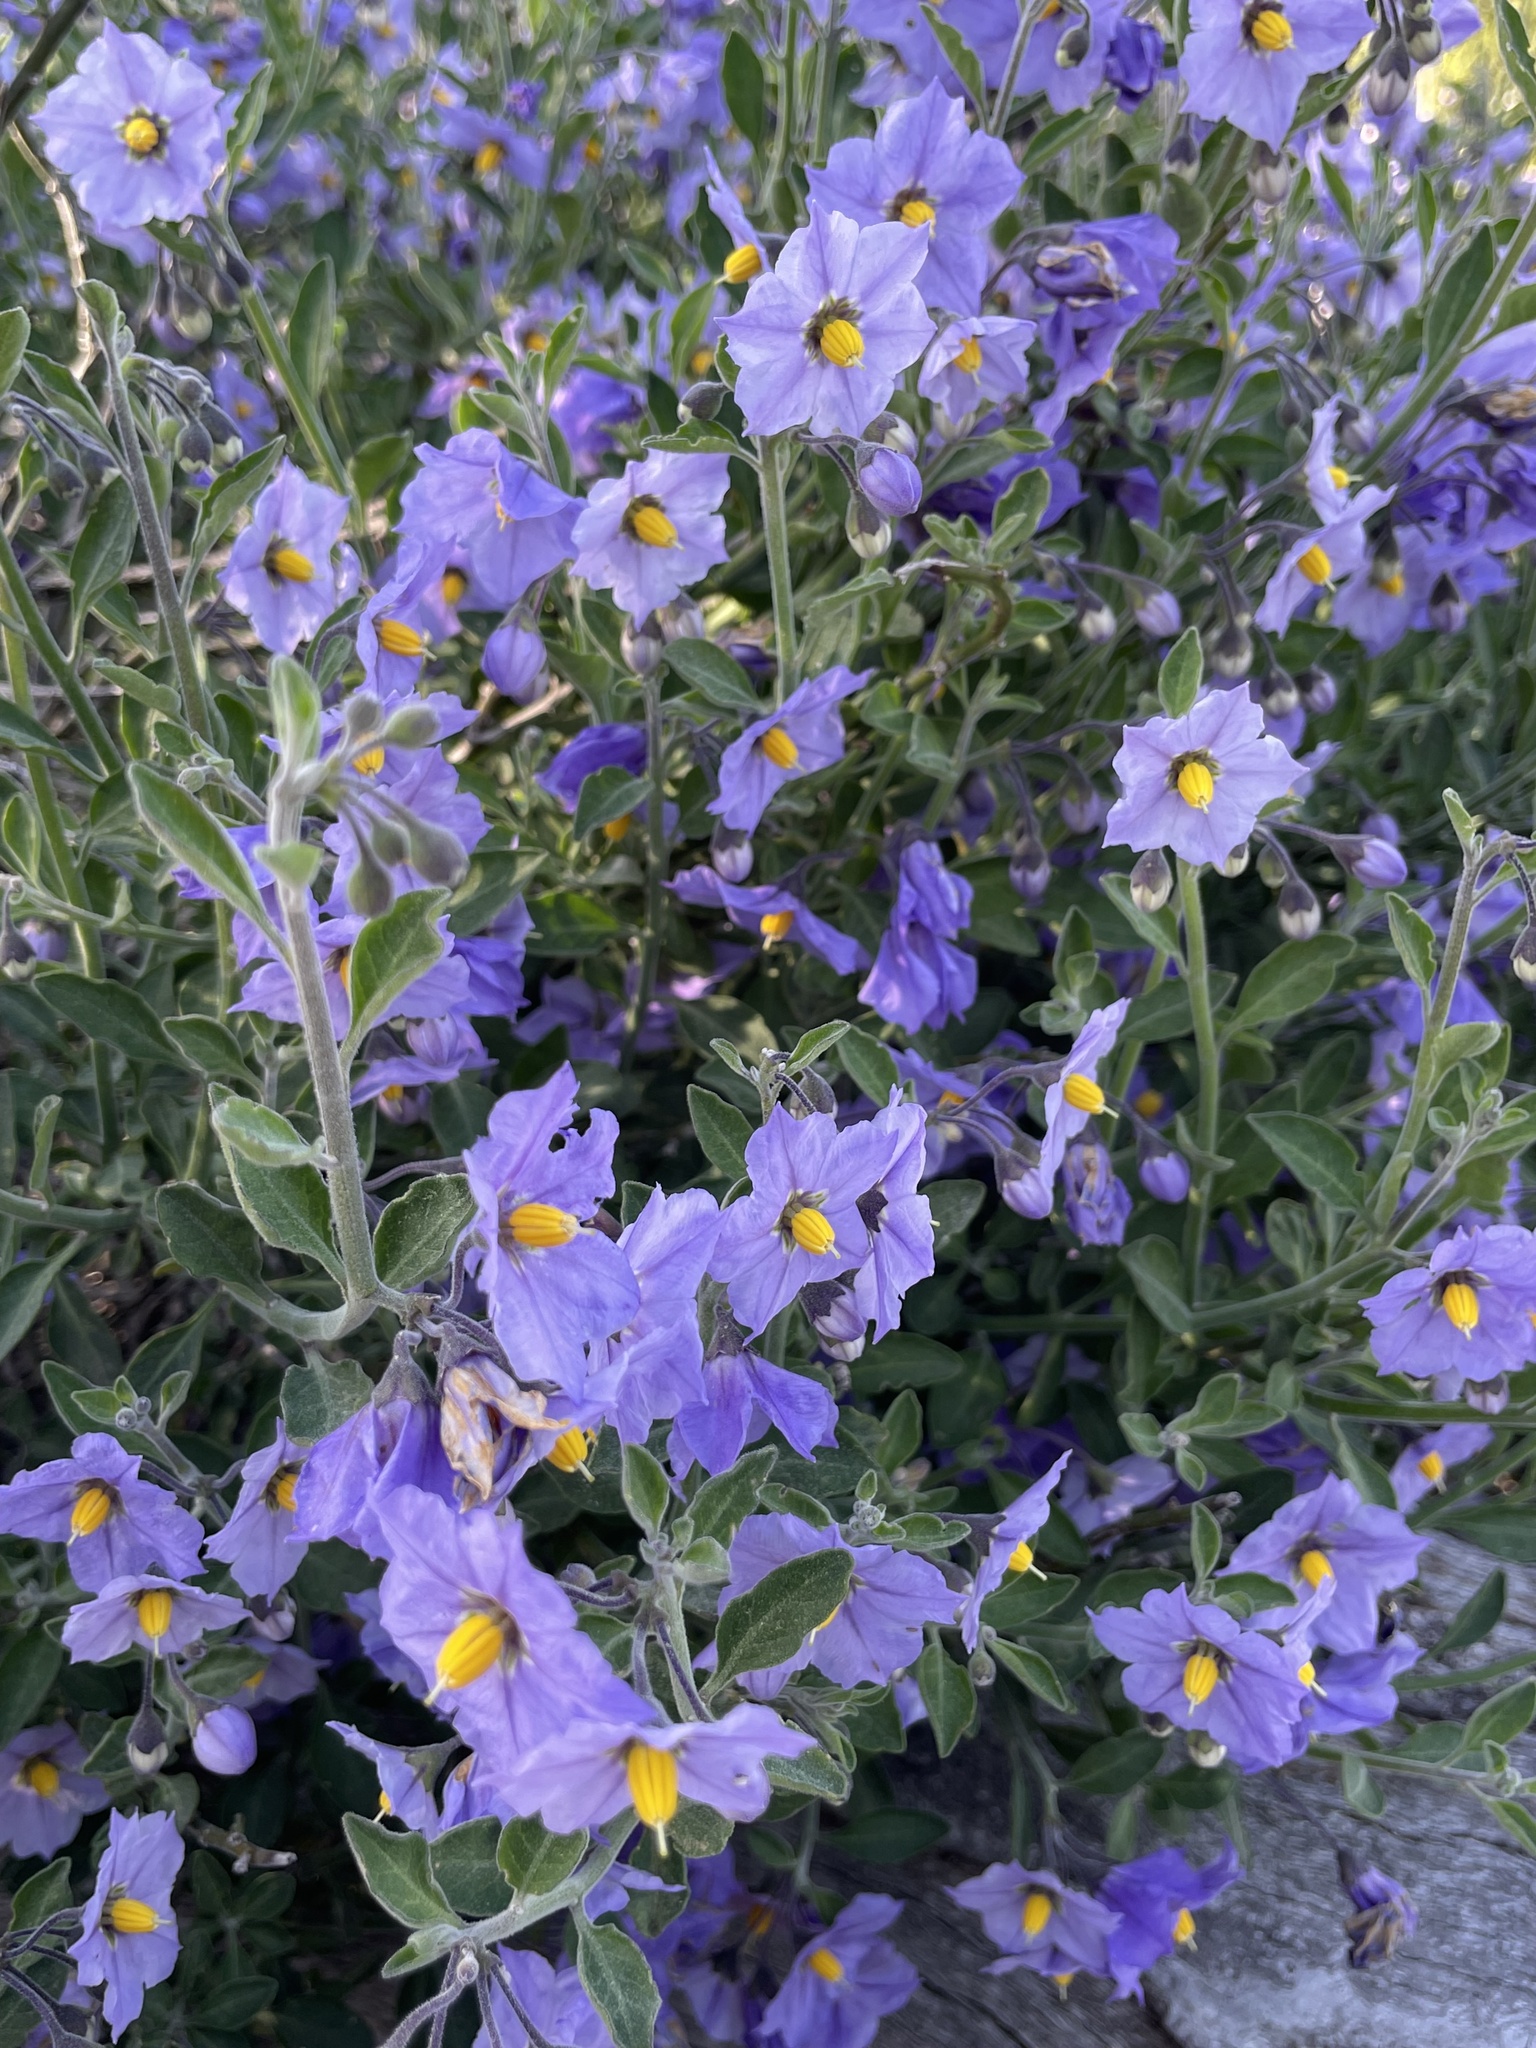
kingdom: Plantae
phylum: Tracheophyta
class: Magnoliopsida
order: Solanales
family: Solanaceae
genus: Solanum
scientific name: Solanum umbelliferum
